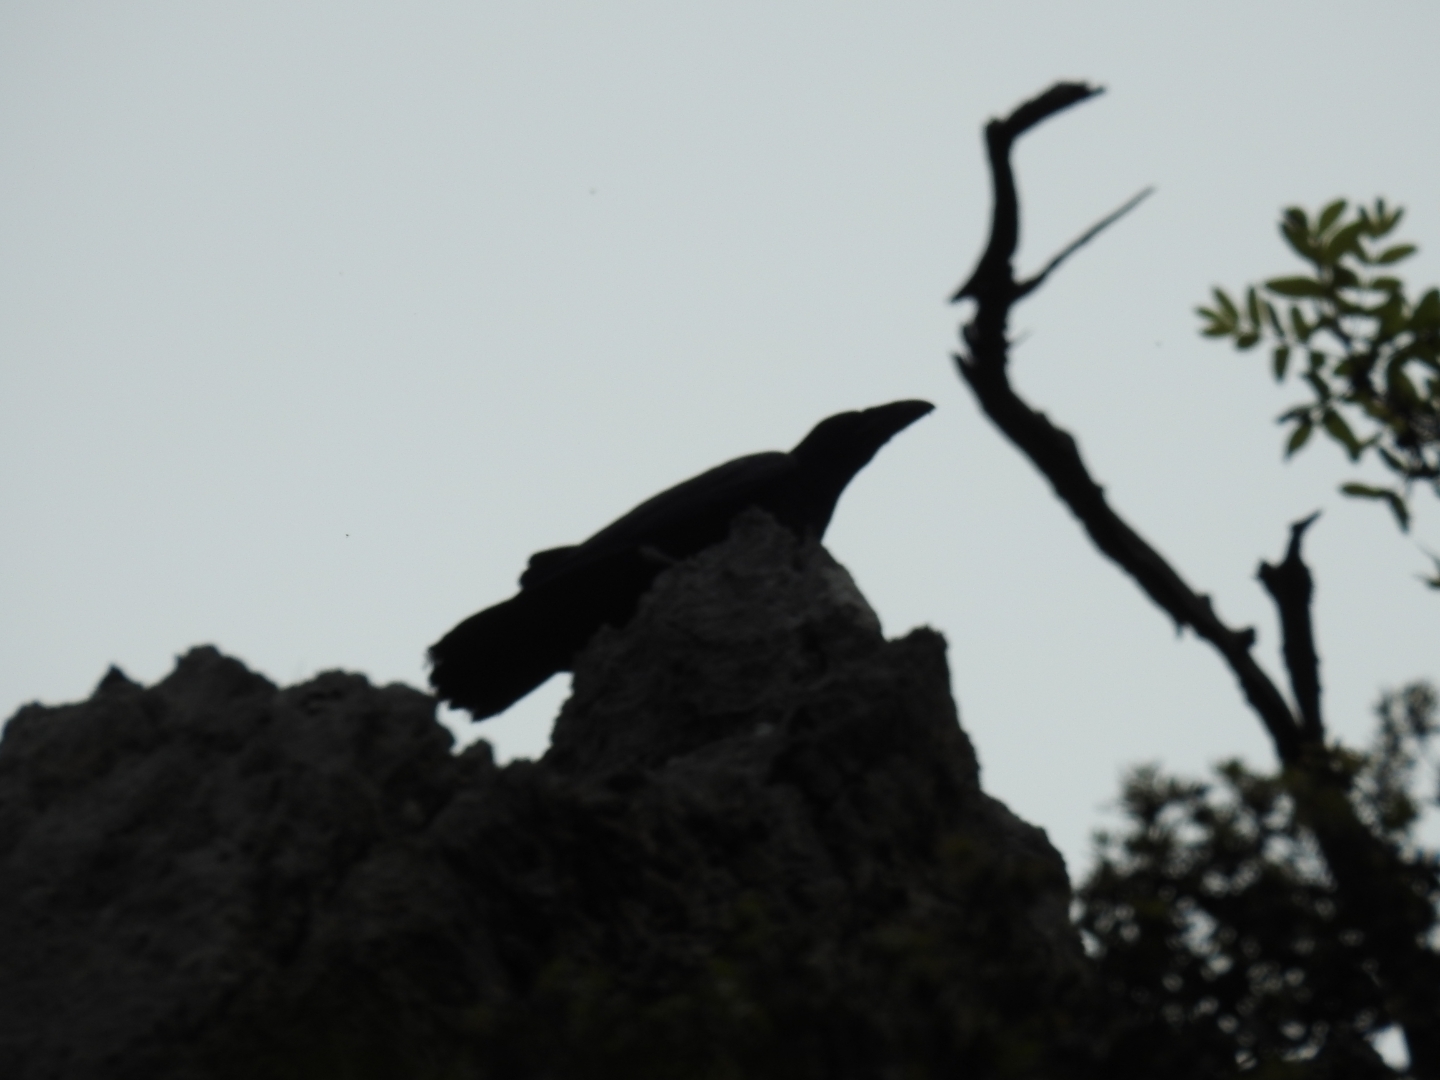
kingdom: Animalia
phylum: Chordata
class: Aves
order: Passeriformes
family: Corvidae
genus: Corvus
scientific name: Corvus corax
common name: Common raven
